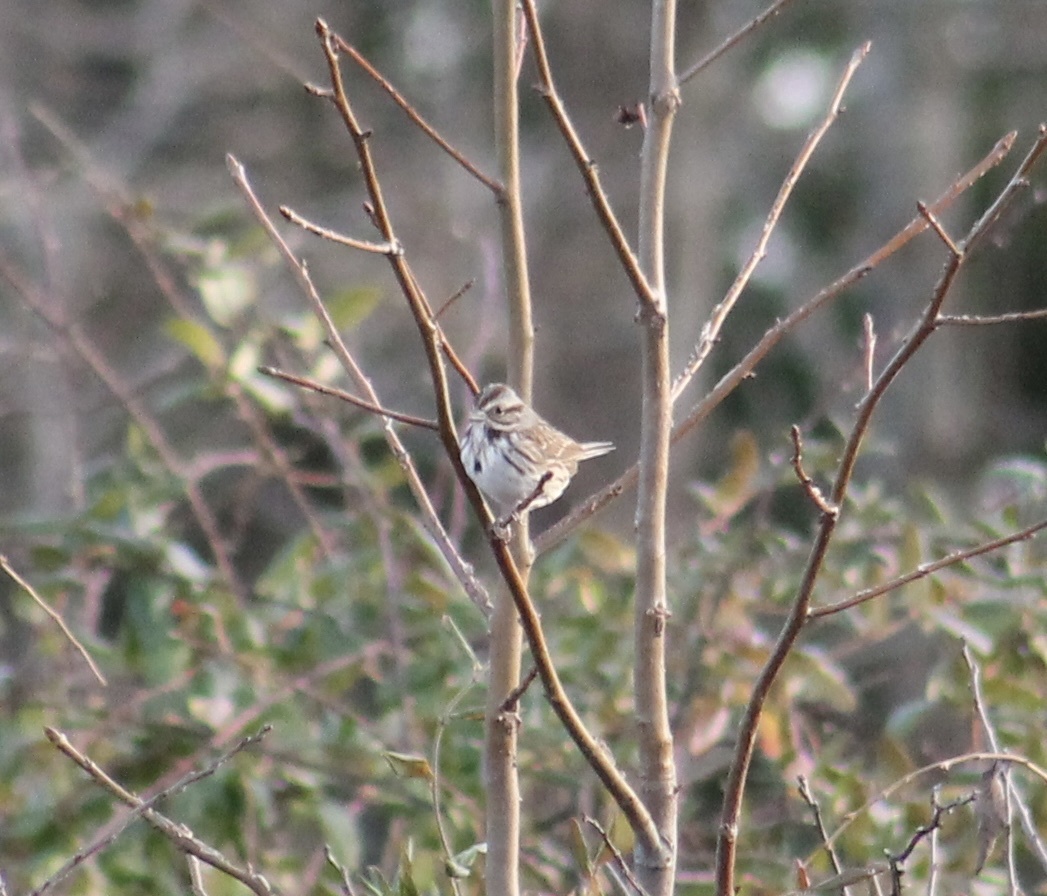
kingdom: Animalia
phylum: Chordata
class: Aves
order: Passeriformes
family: Passerellidae
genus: Melospiza
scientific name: Melospiza melodia
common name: Song sparrow
